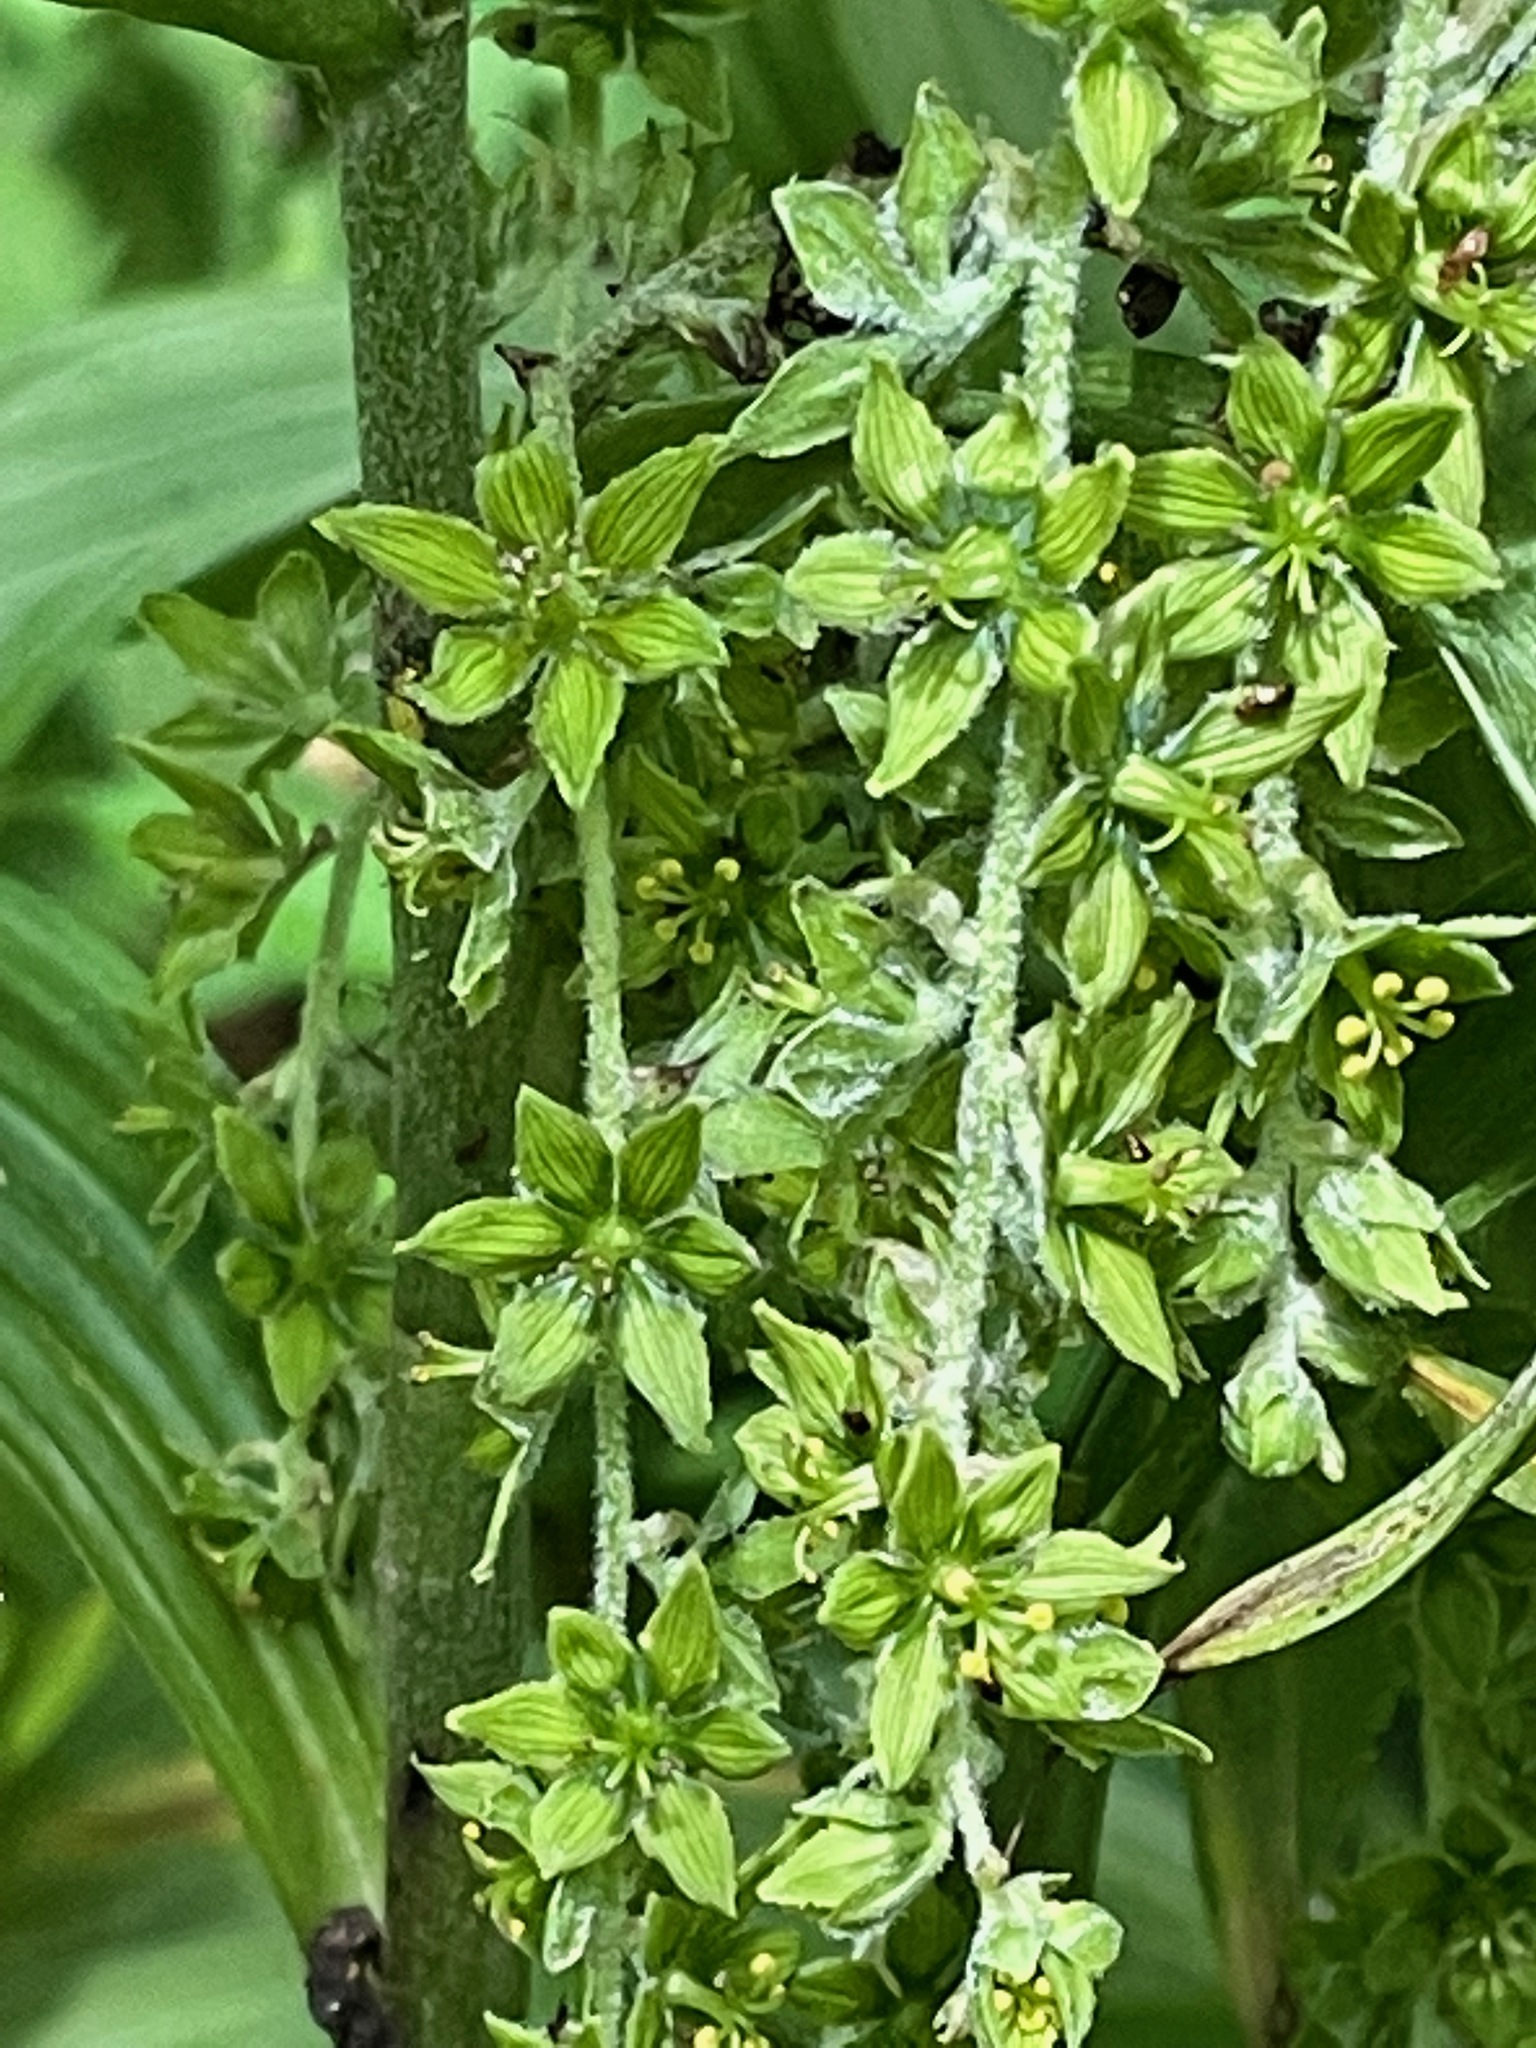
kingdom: Plantae
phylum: Tracheophyta
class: Liliopsida
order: Liliales
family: Melanthiaceae
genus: Veratrum
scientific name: Veratrum viride
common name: American false hellebore
